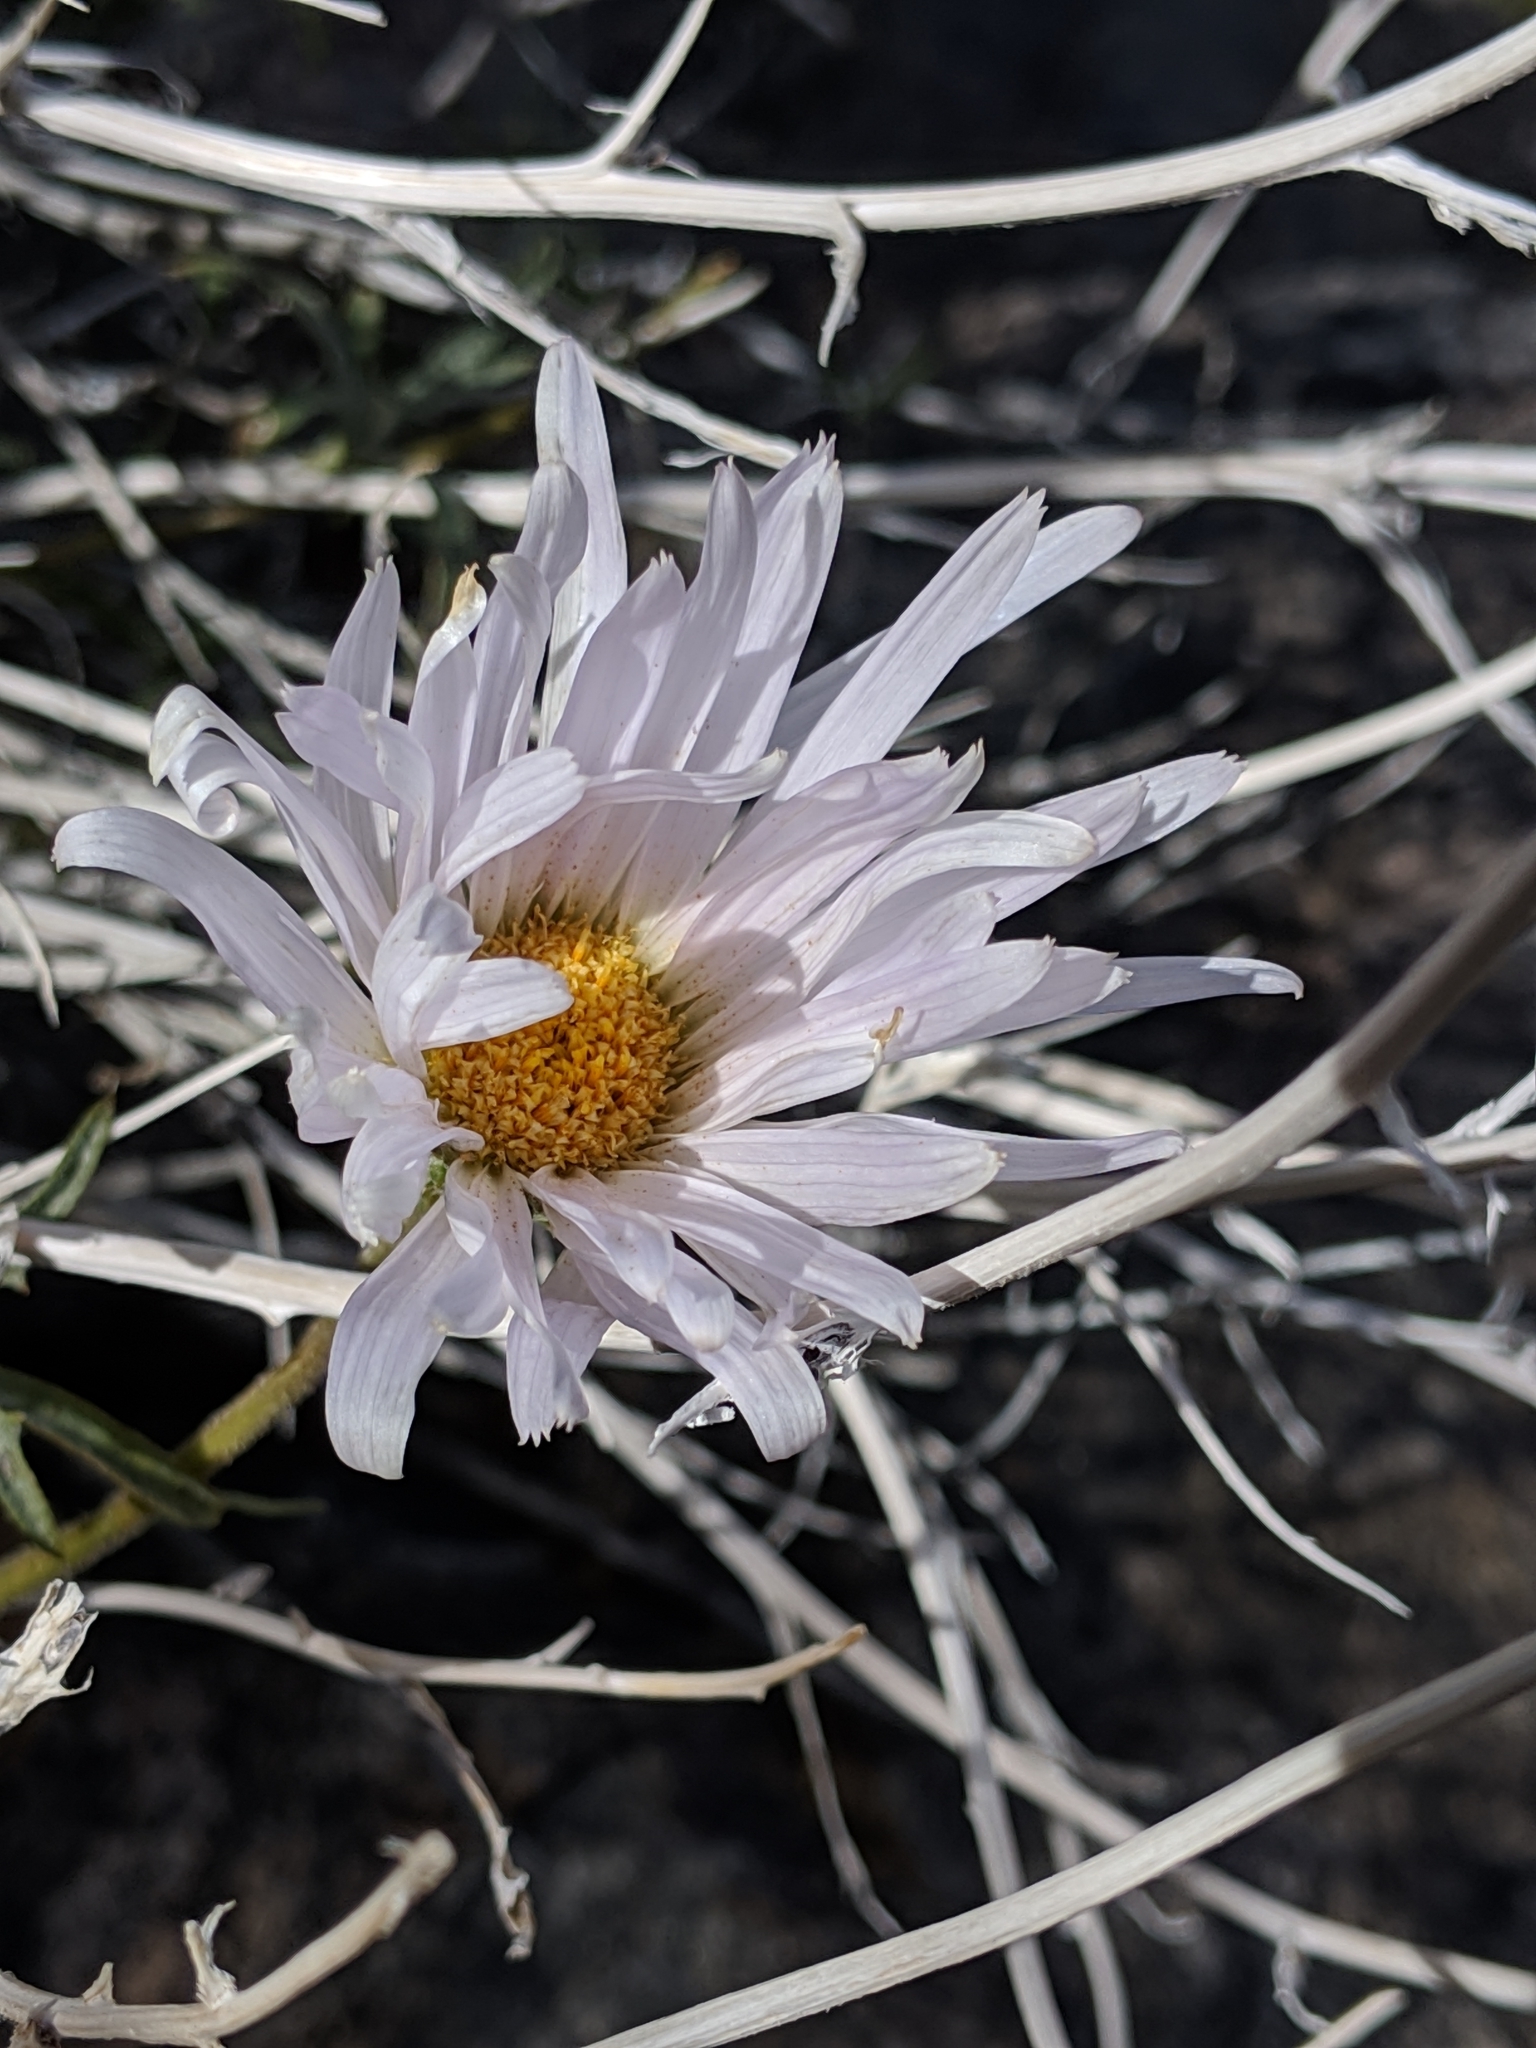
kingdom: Plantae
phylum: Tracheophyta
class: Magnoliopsida
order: Asterales
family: Asteraceae
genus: Xylorhiza
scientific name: Xylorhiza tortifolia
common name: Hurt-leaf woody-aster
